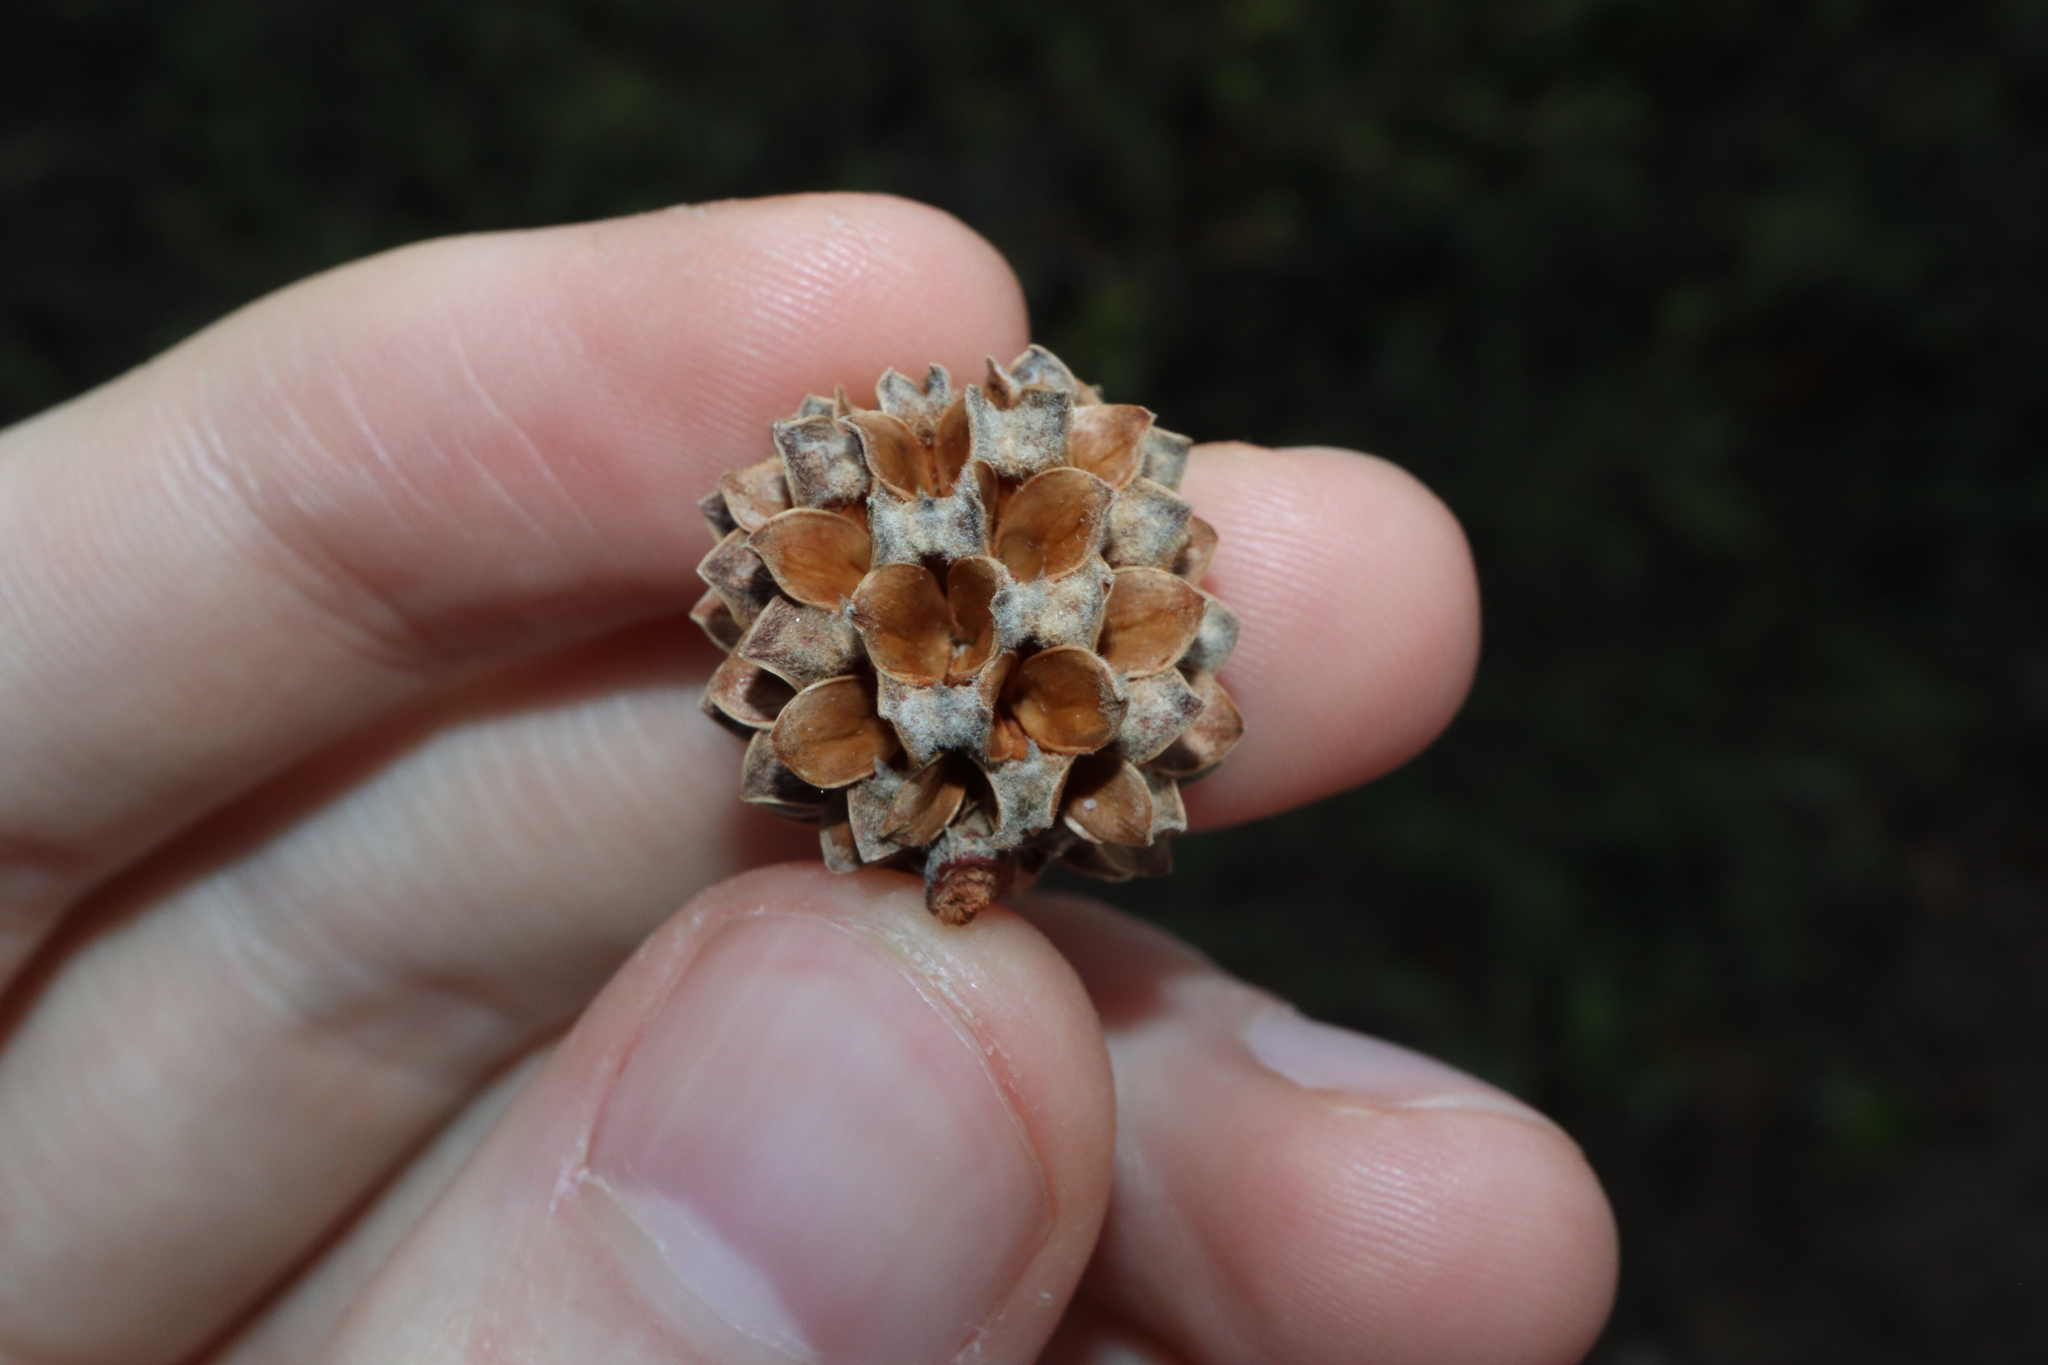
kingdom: Plantae
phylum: Tracheophyta
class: Magnoliopsida
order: Fagales
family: Casuarinaceae
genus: Casuarina
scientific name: Casuarina equisetifolia
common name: Beach sheoak
